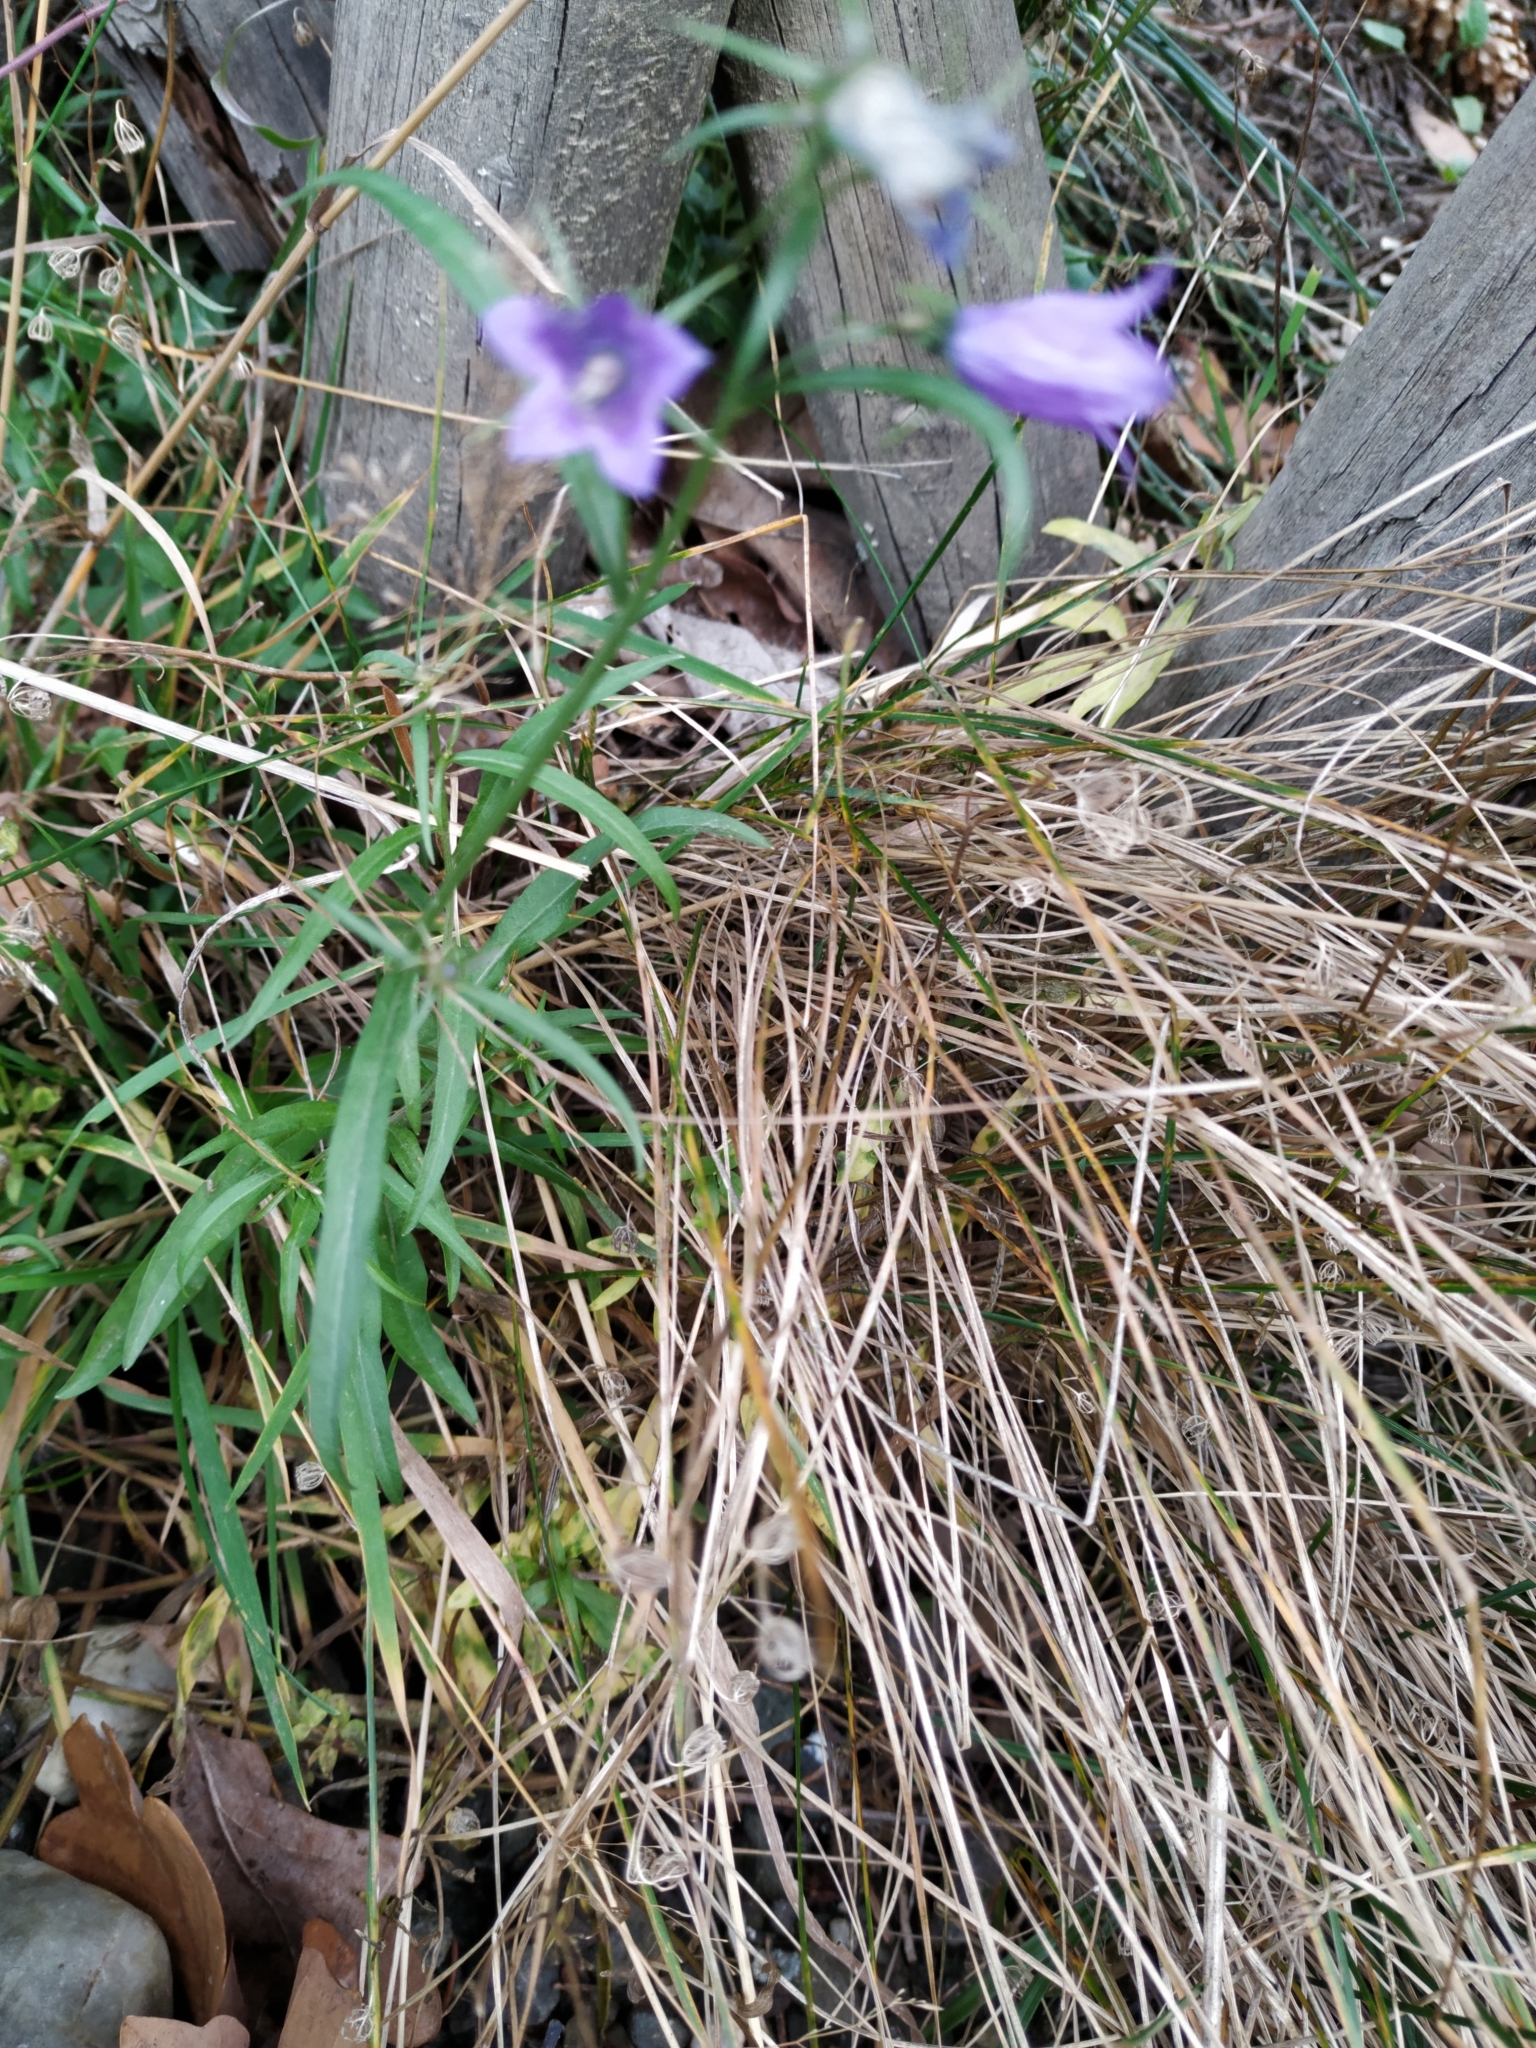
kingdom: Plantae
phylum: Tracheophyta
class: Magnoliopsida
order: Asterales
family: Campanulaceae
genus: Campanula
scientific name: Campanula persicifolia
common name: Peach-leaved bellflower
